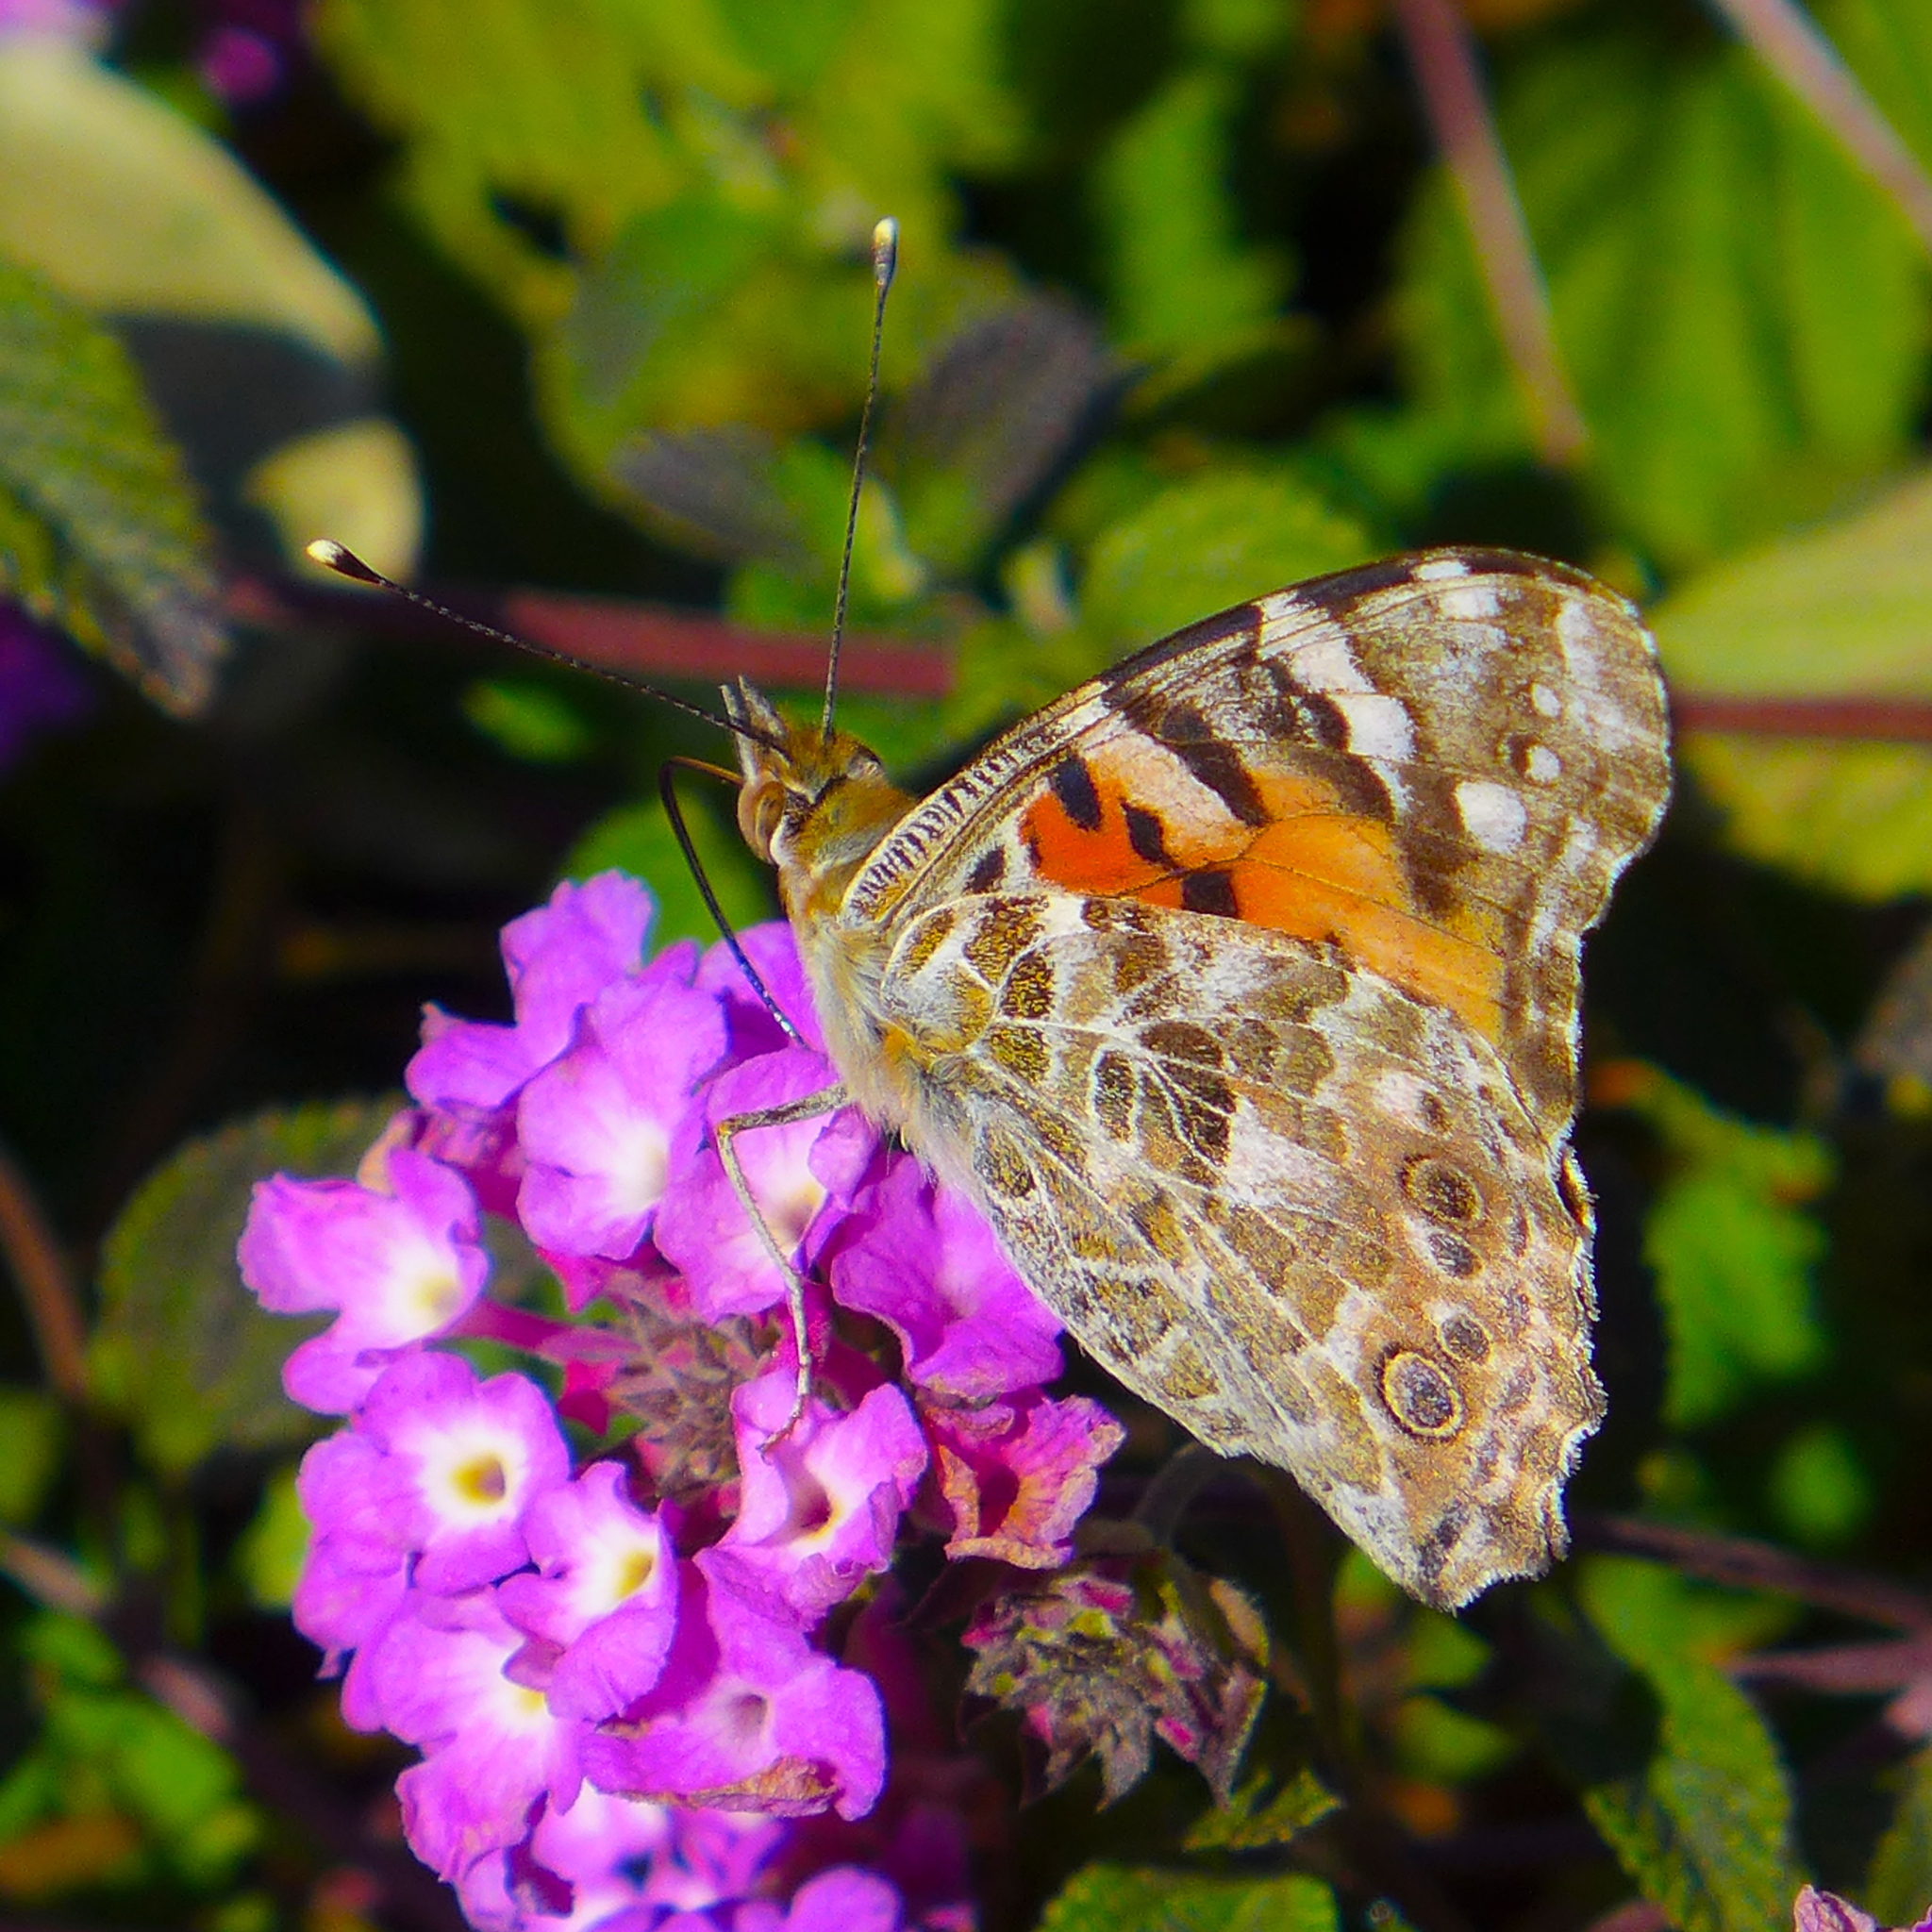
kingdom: Animalia
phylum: Arthropoda
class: Insecta
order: Lepidoptera
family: Nymphalidae
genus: Vanessa
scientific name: Vanessa cardui
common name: Painted lady
